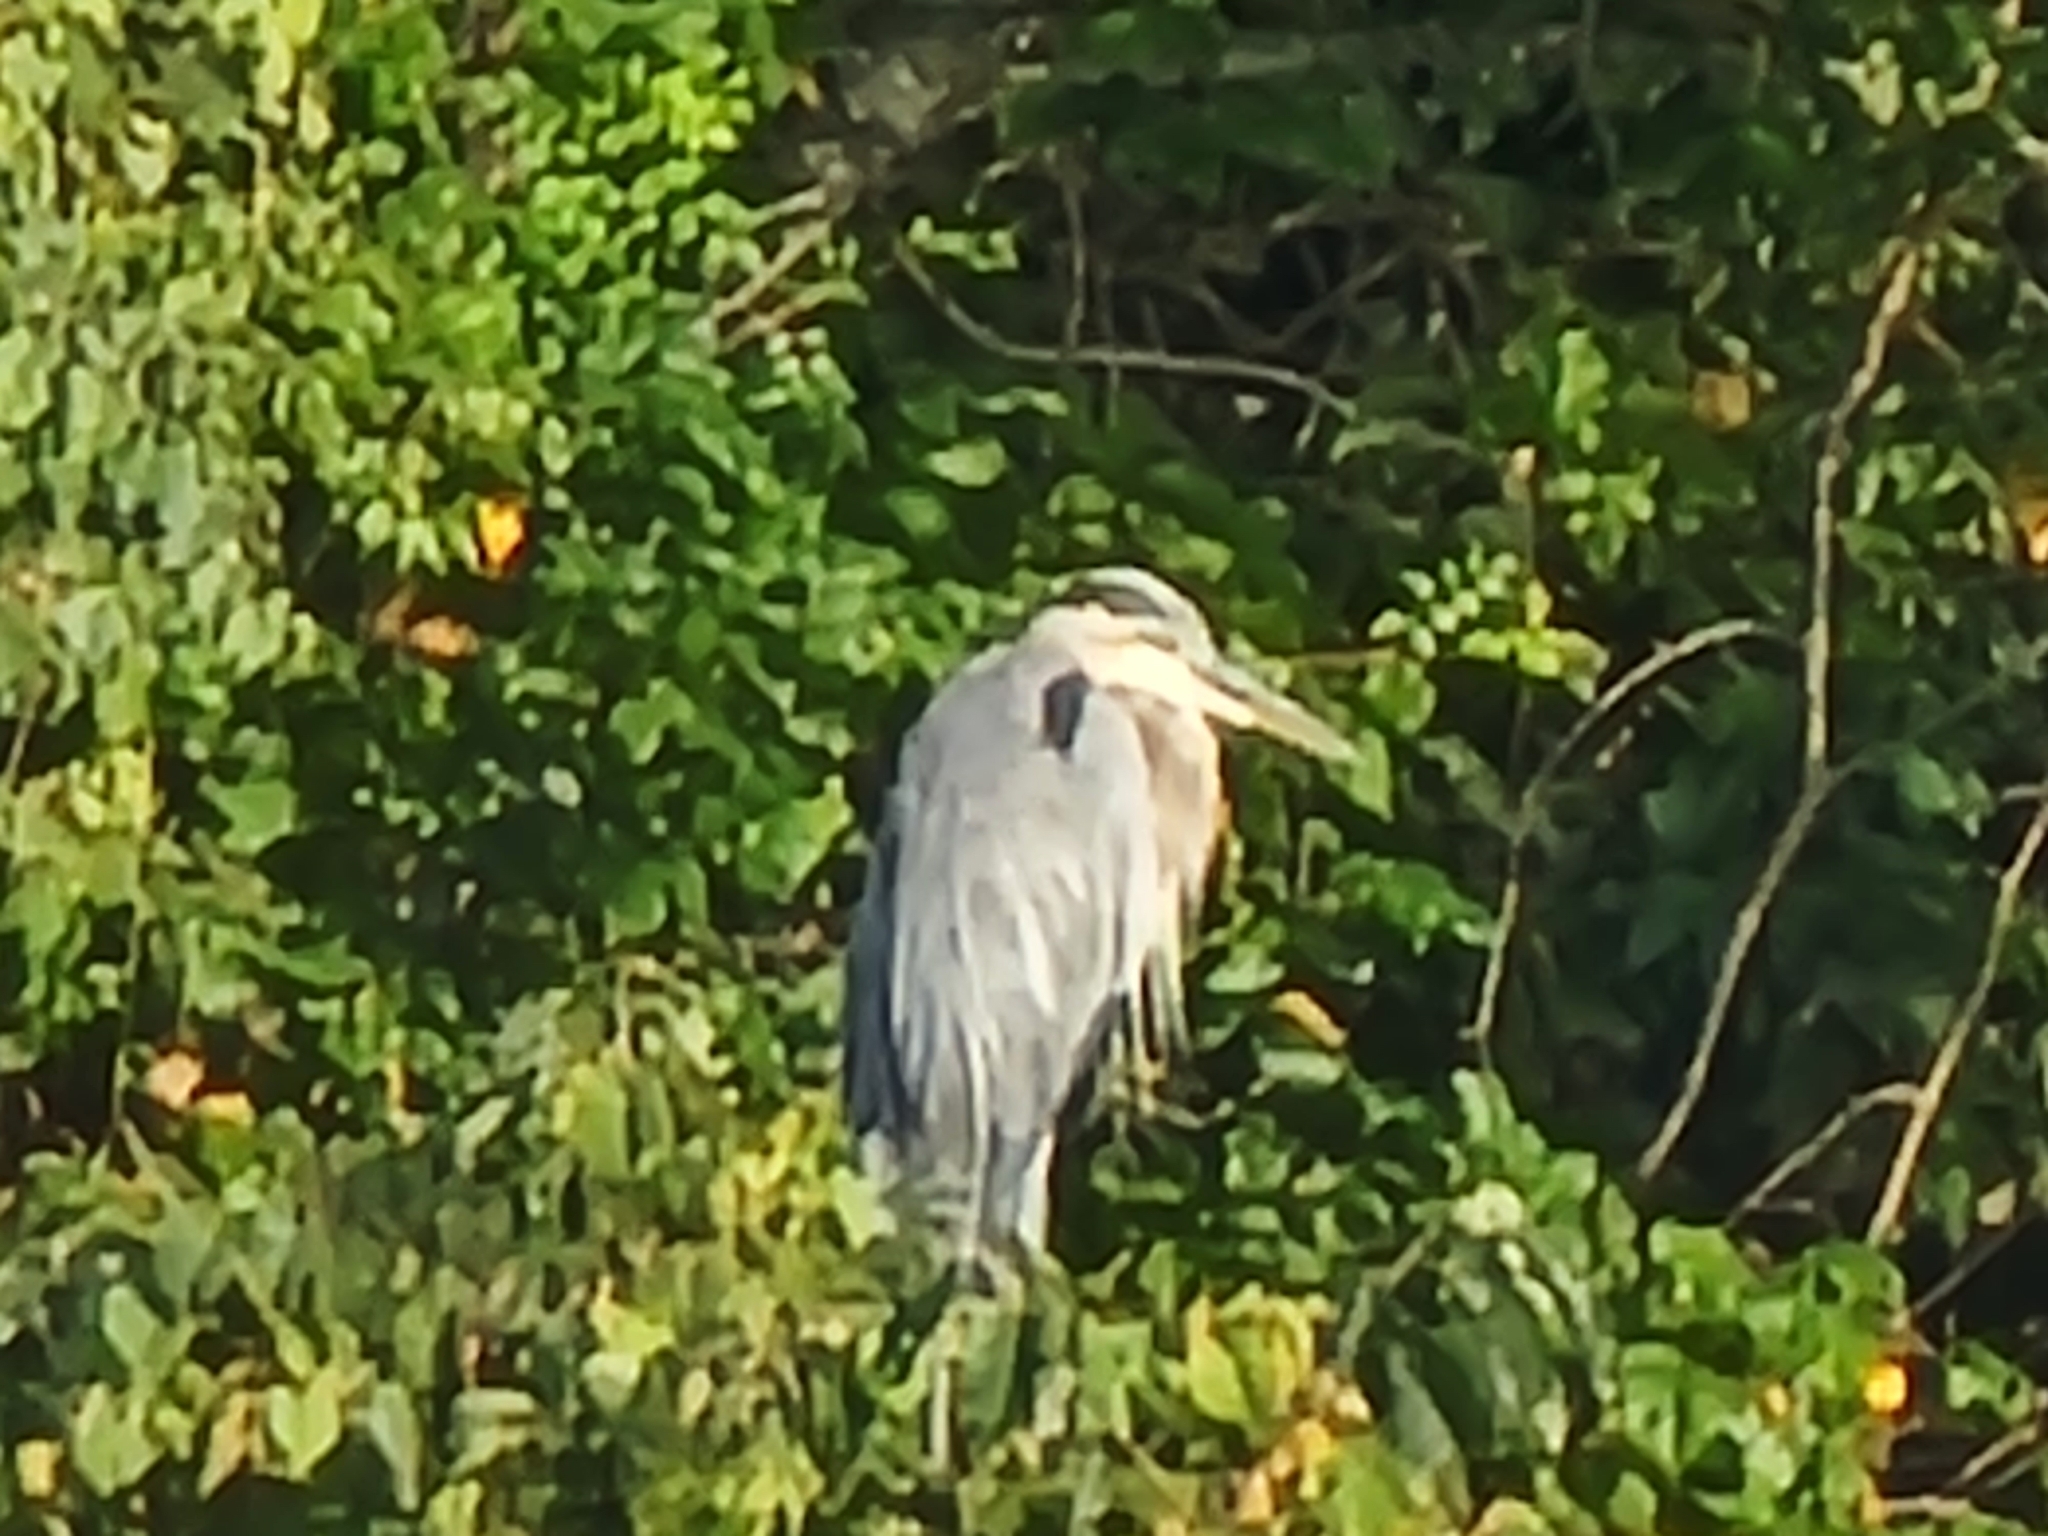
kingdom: Animalia
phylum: Chordata
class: Aves
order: Pelecaniformes
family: Ardeidae
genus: Ardea
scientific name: Ardea herodias
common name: Great blue heron
